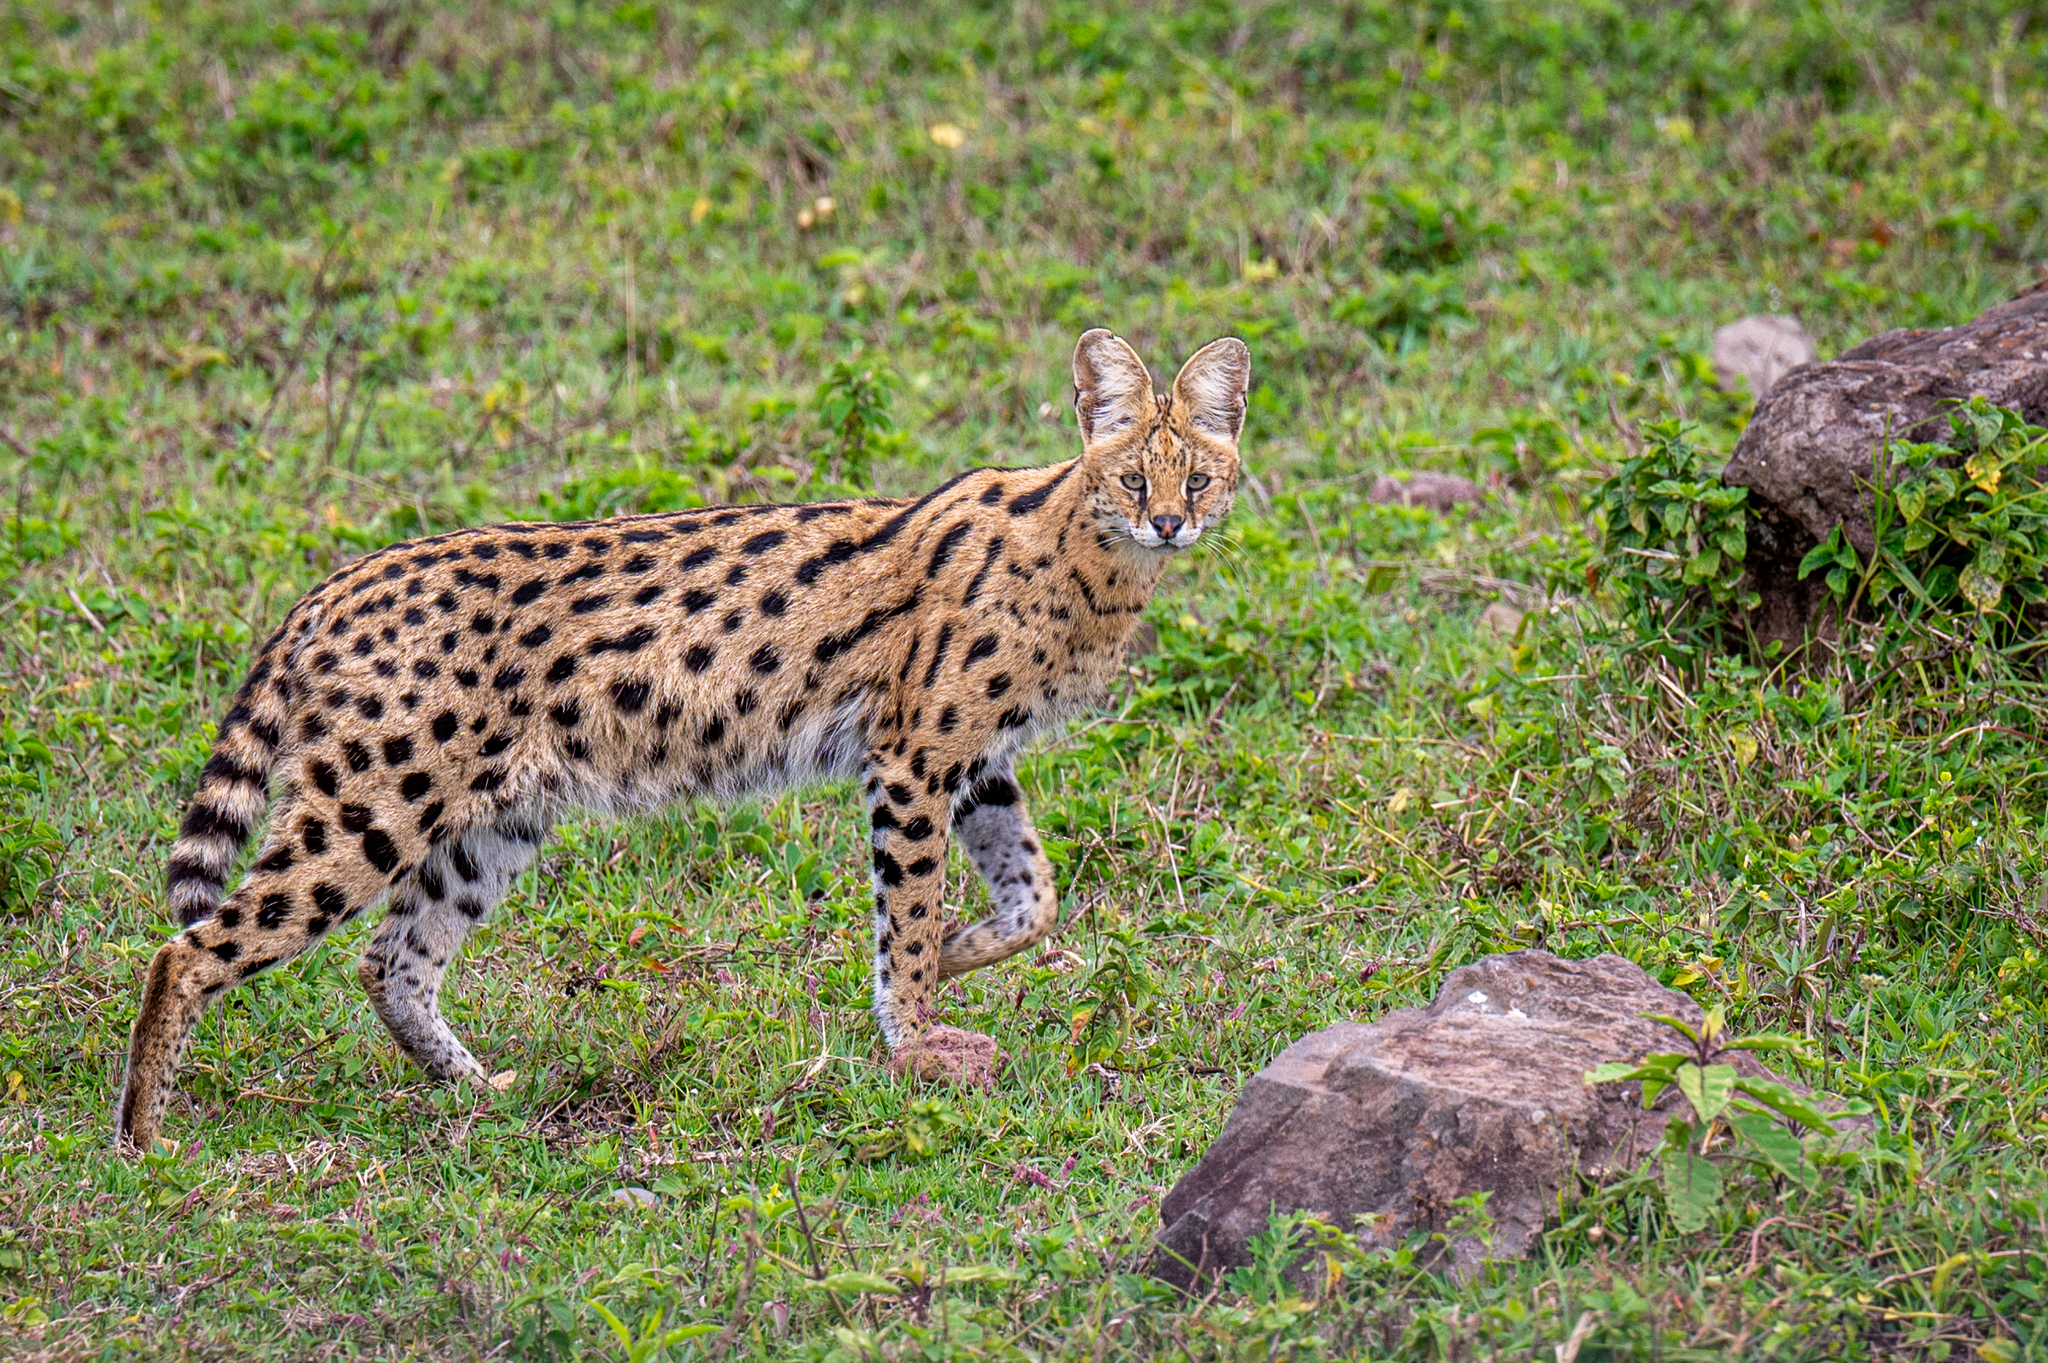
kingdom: Animalia
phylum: Chordata
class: Mammalia
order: Carnivora
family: Felidae
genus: Leptailurus
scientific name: Leptailurus serval
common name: Serval
